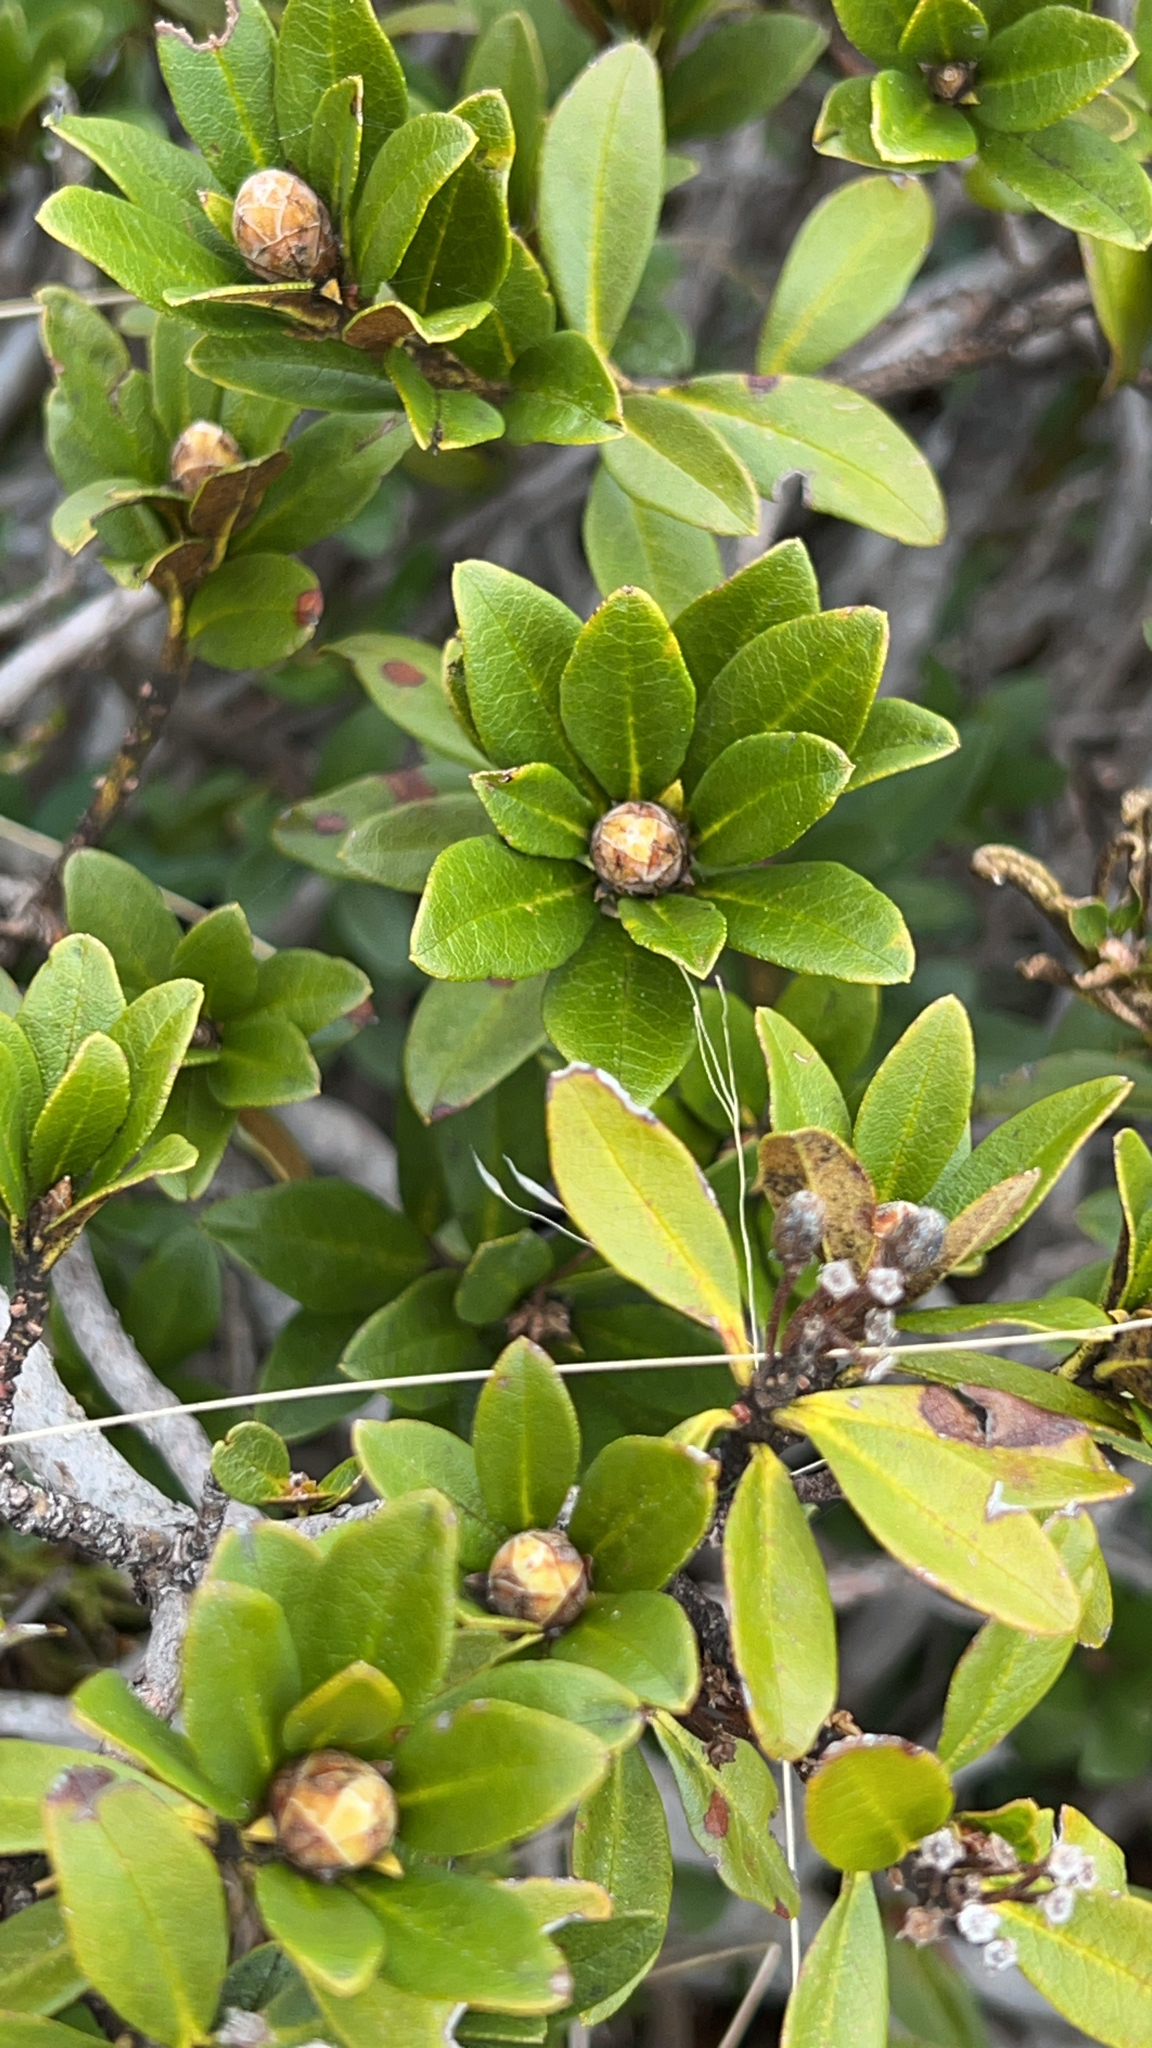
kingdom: Plantae
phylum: Tracheophyta
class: Magnoliopsida
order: Ericales
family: Ericaceae
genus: Rhododendron
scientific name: Rhododendron ferrugineum
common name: Alpenrose
